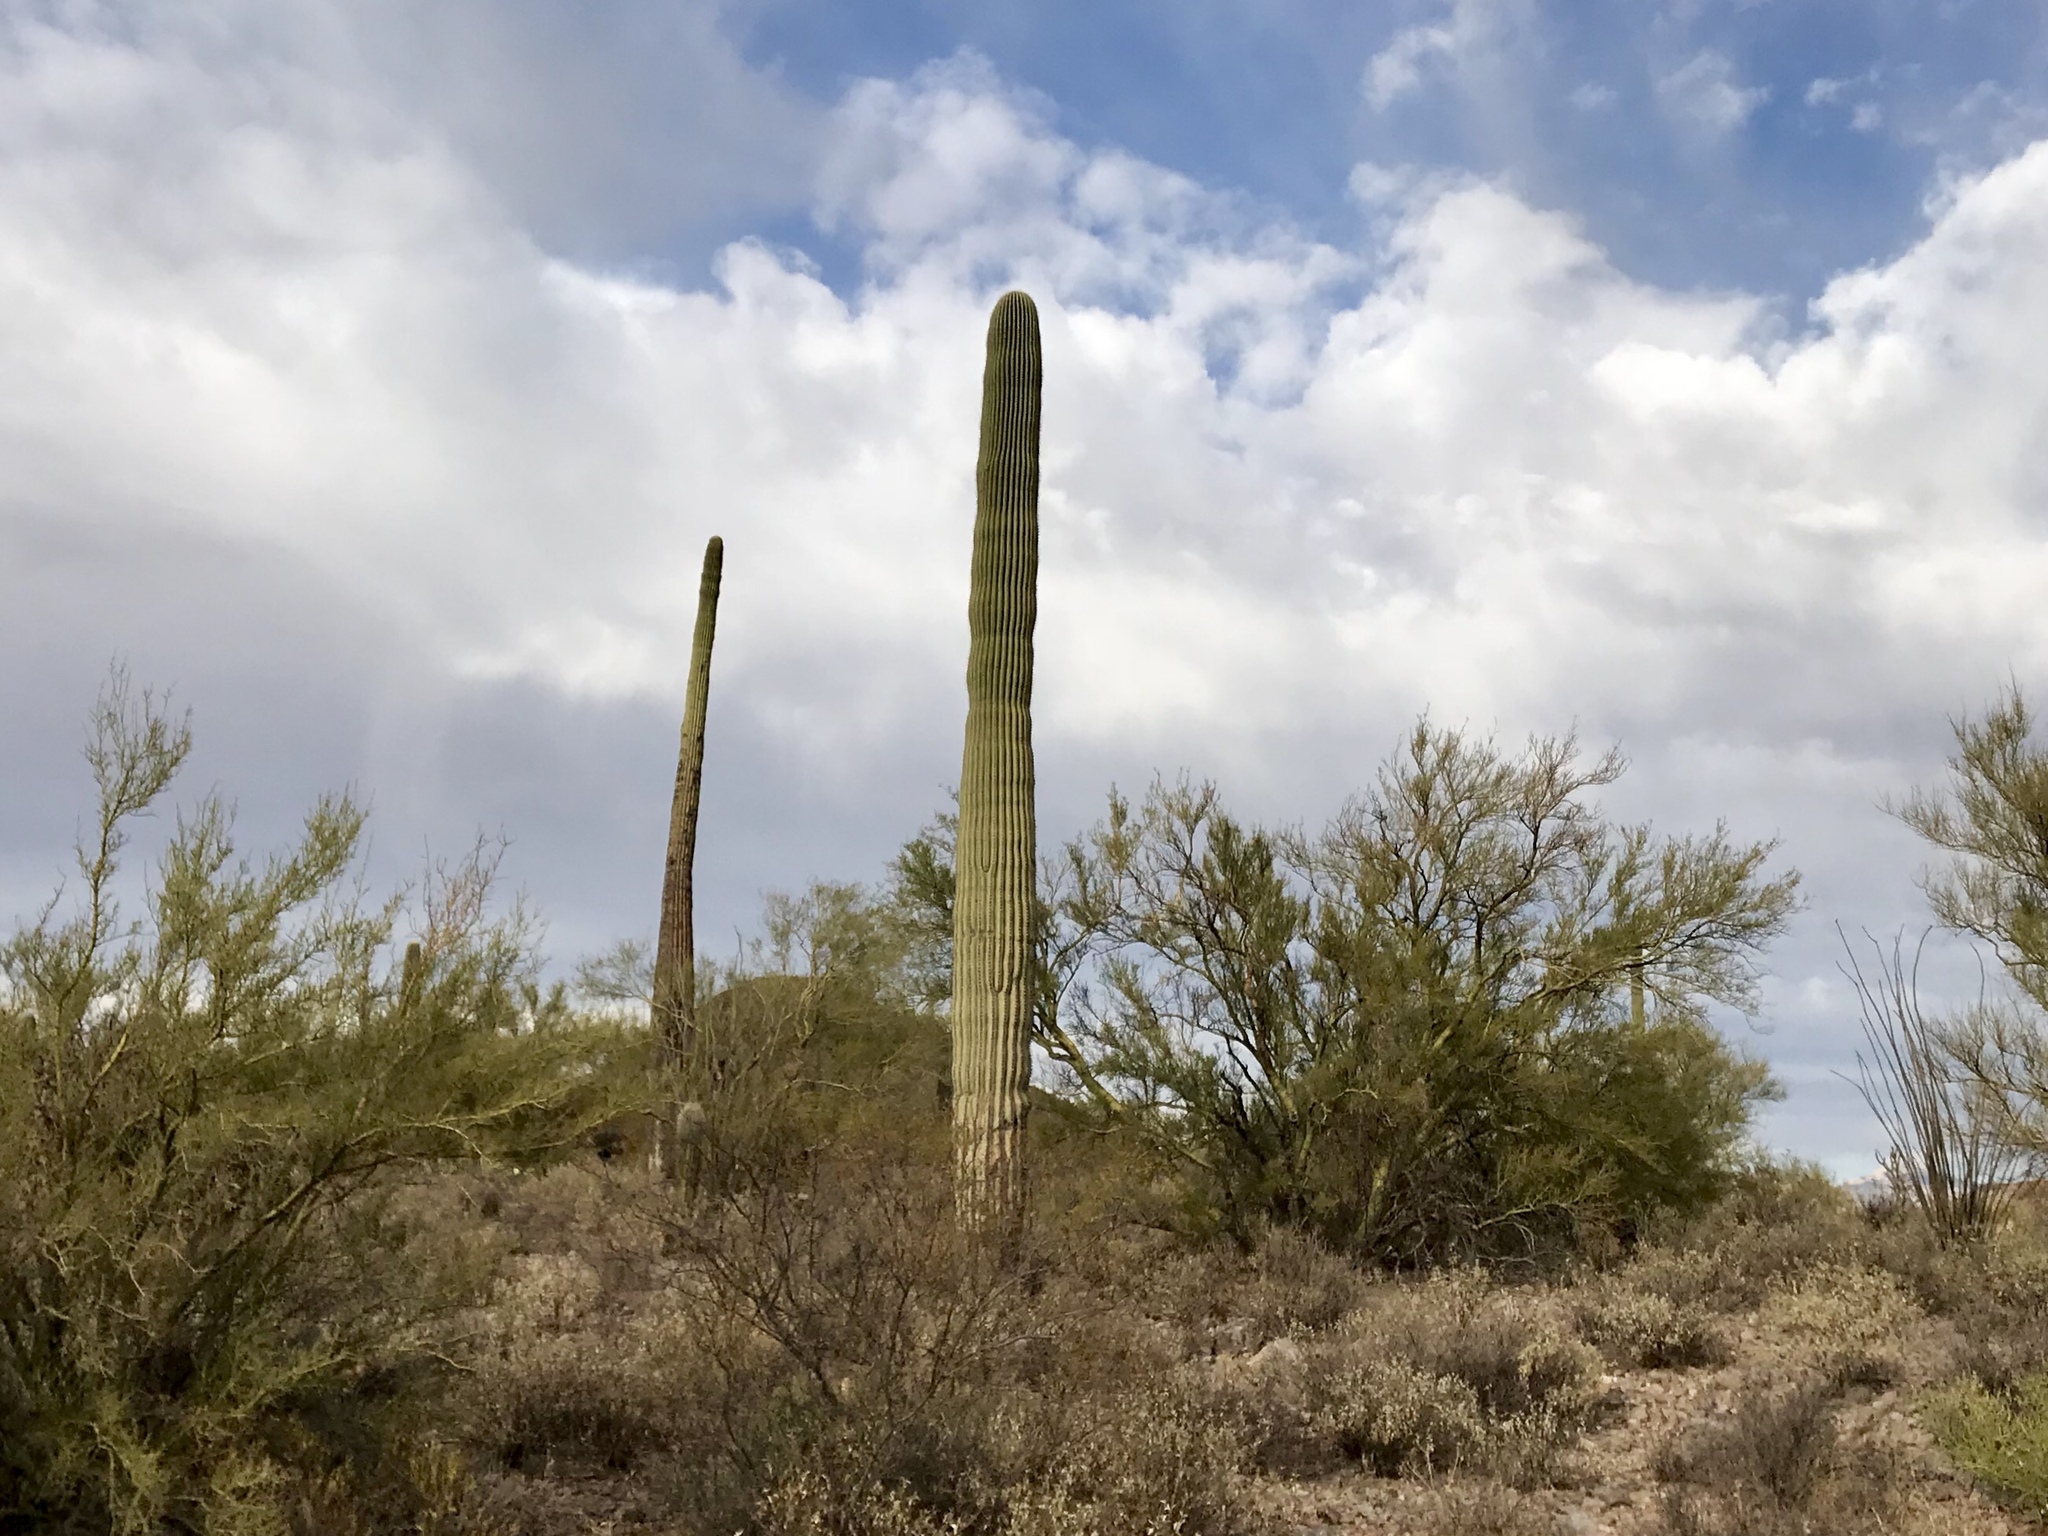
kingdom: Plantae
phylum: Tracheophyta
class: Magnoliopsida
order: Caryophyllales
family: Cactaceae
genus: Carnegiea
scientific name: Carnegiea gigantea
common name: Saguaro
